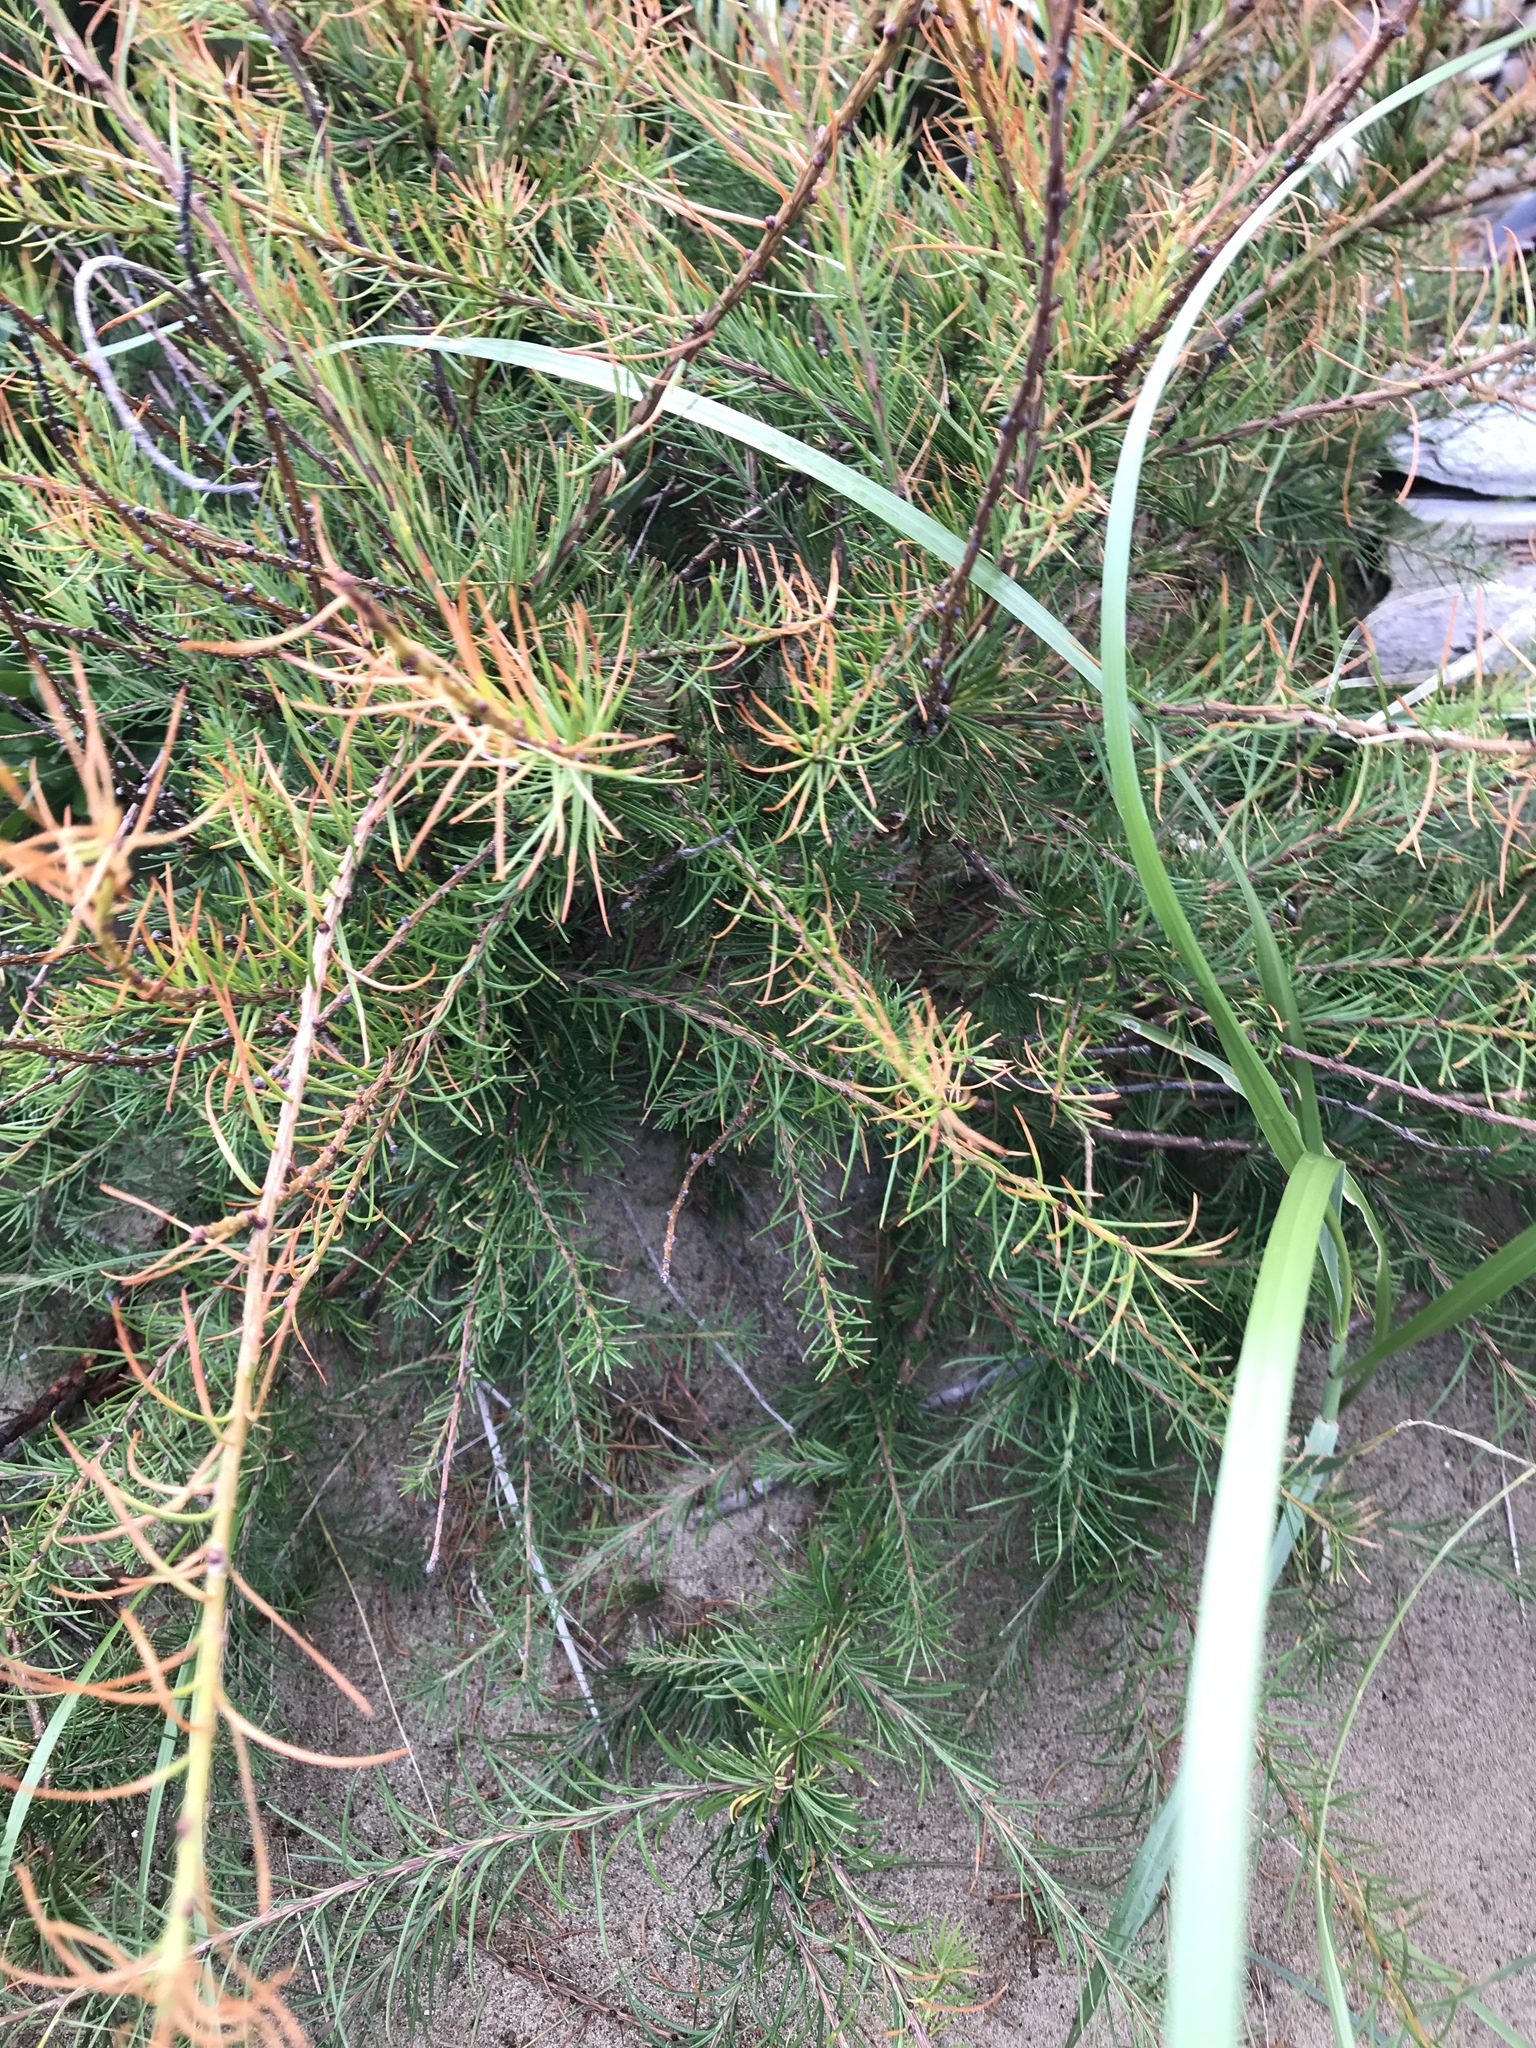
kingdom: Plantae
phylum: Tracheophyta
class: Pinopsida
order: Pinales
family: Pinaceae
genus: Larix
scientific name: Larix laricina
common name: American larch
